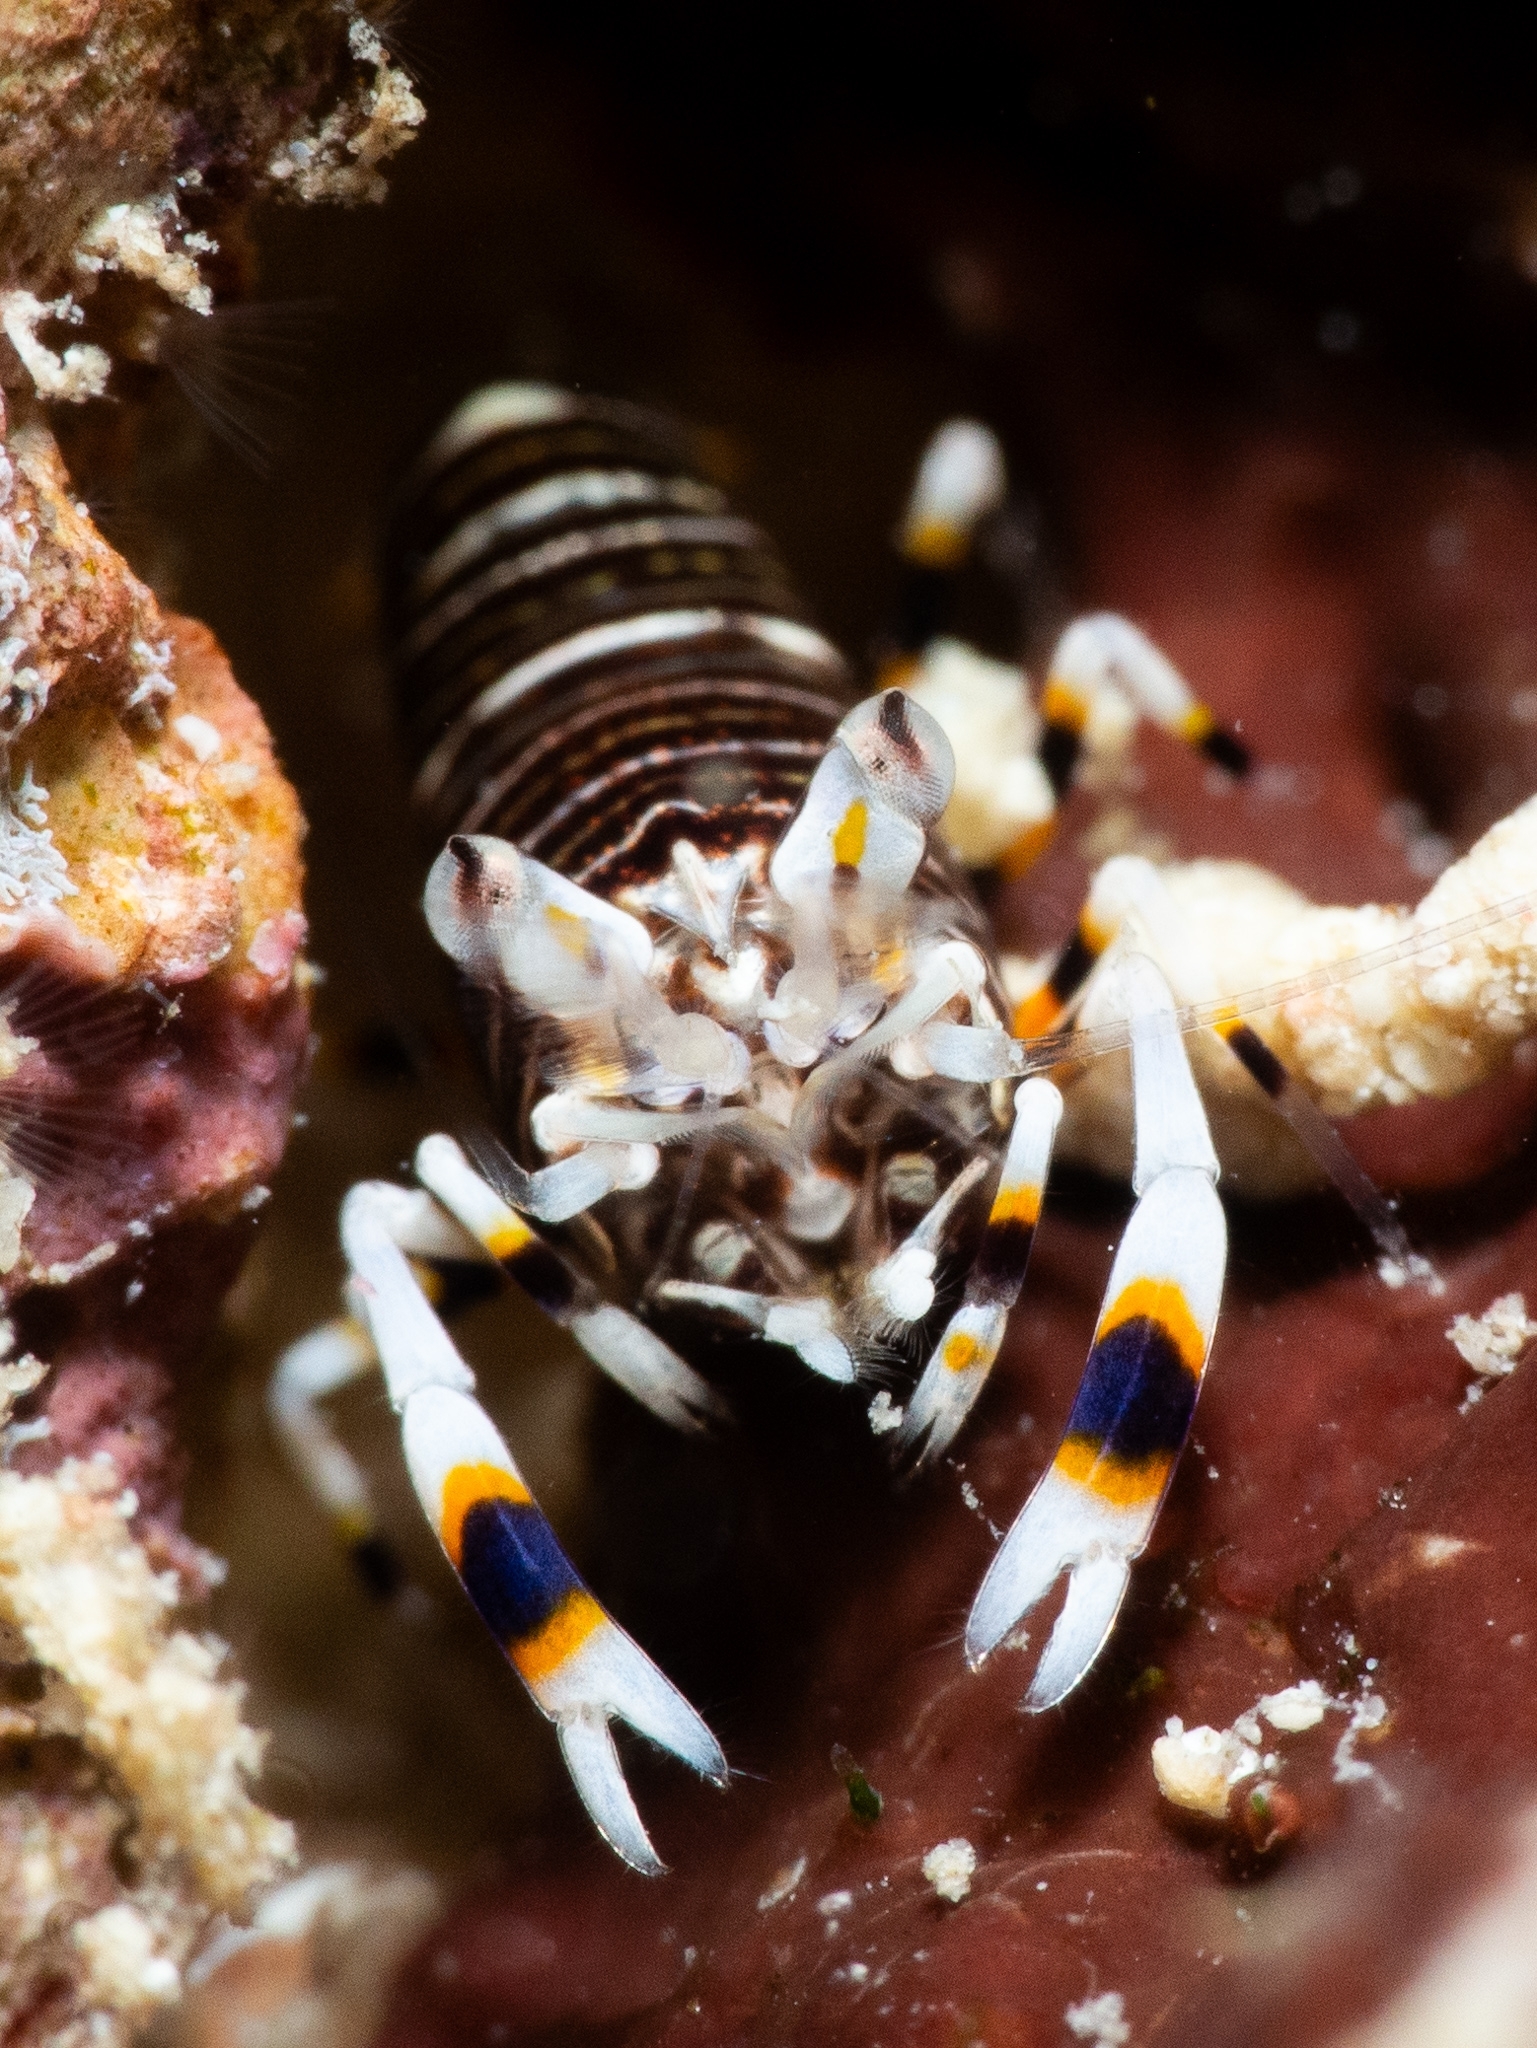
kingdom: Animalia
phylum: Arthropoda
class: Malacostraca
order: Decapoda
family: Palaemonidae
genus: Gnathophyllum
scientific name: Gnathophyllum americanum
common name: Bumblebee shrimp
